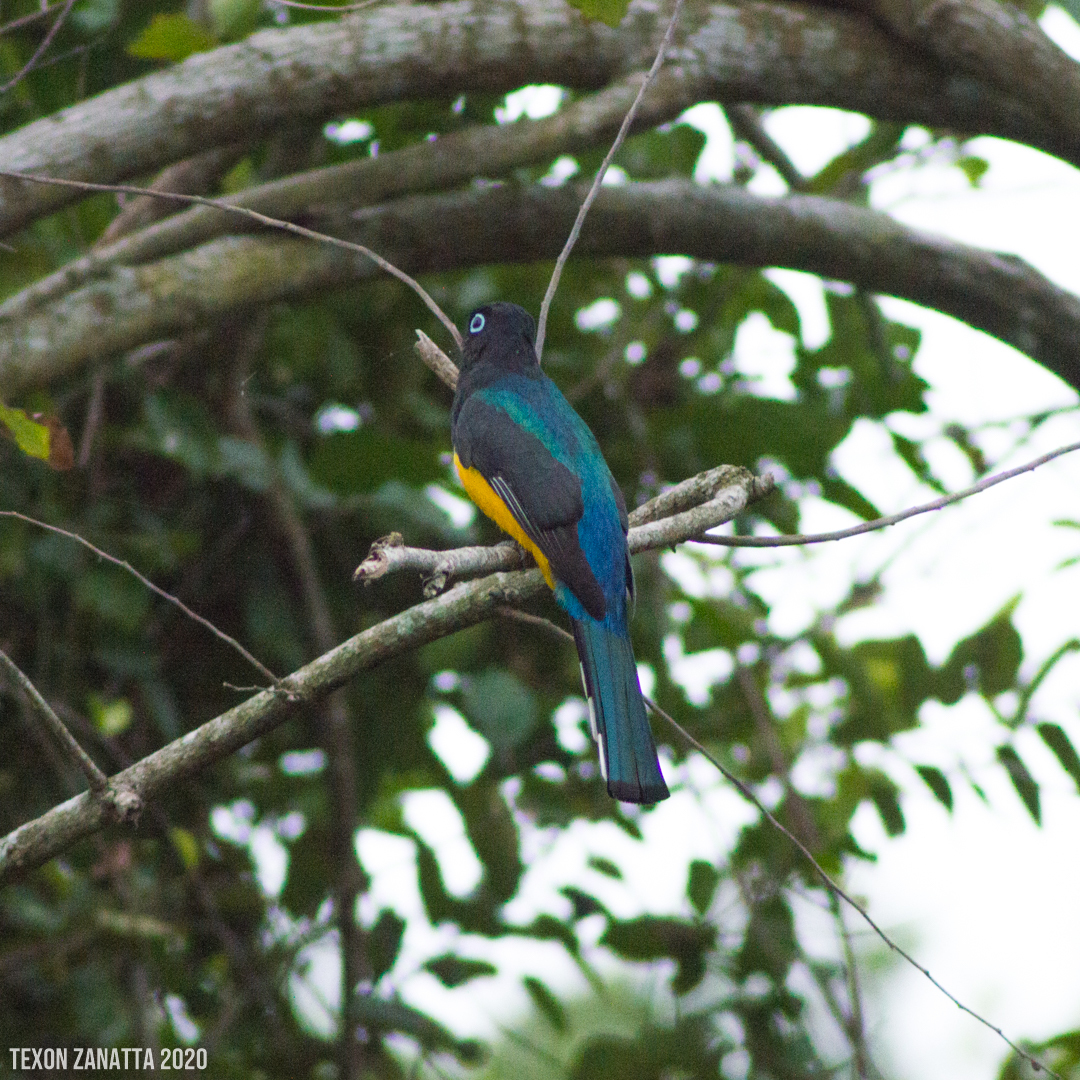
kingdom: Animalia
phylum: Chordata
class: Aves
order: Trogoniformes
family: Trogonidae
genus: Trogon
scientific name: Trogon melanocephalus
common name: Black-headed trogon
